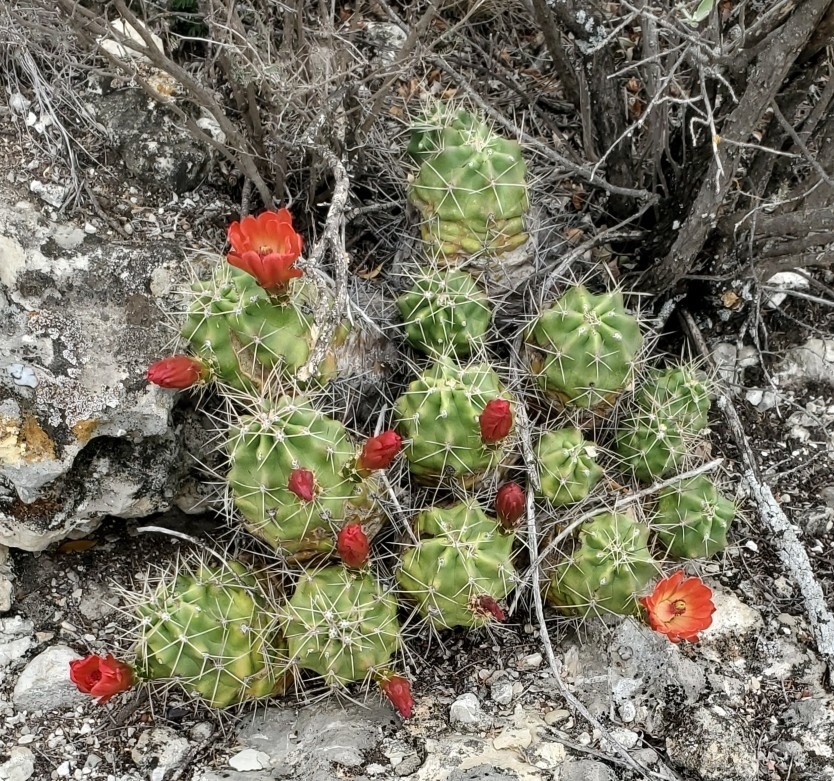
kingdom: Plantae
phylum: Tracheophyta
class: Magnoliopsida
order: Caryophyllales
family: Cactaceae
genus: Echinocereus
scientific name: Echinocereus coccineus
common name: Scarlet hedgehog cactus
